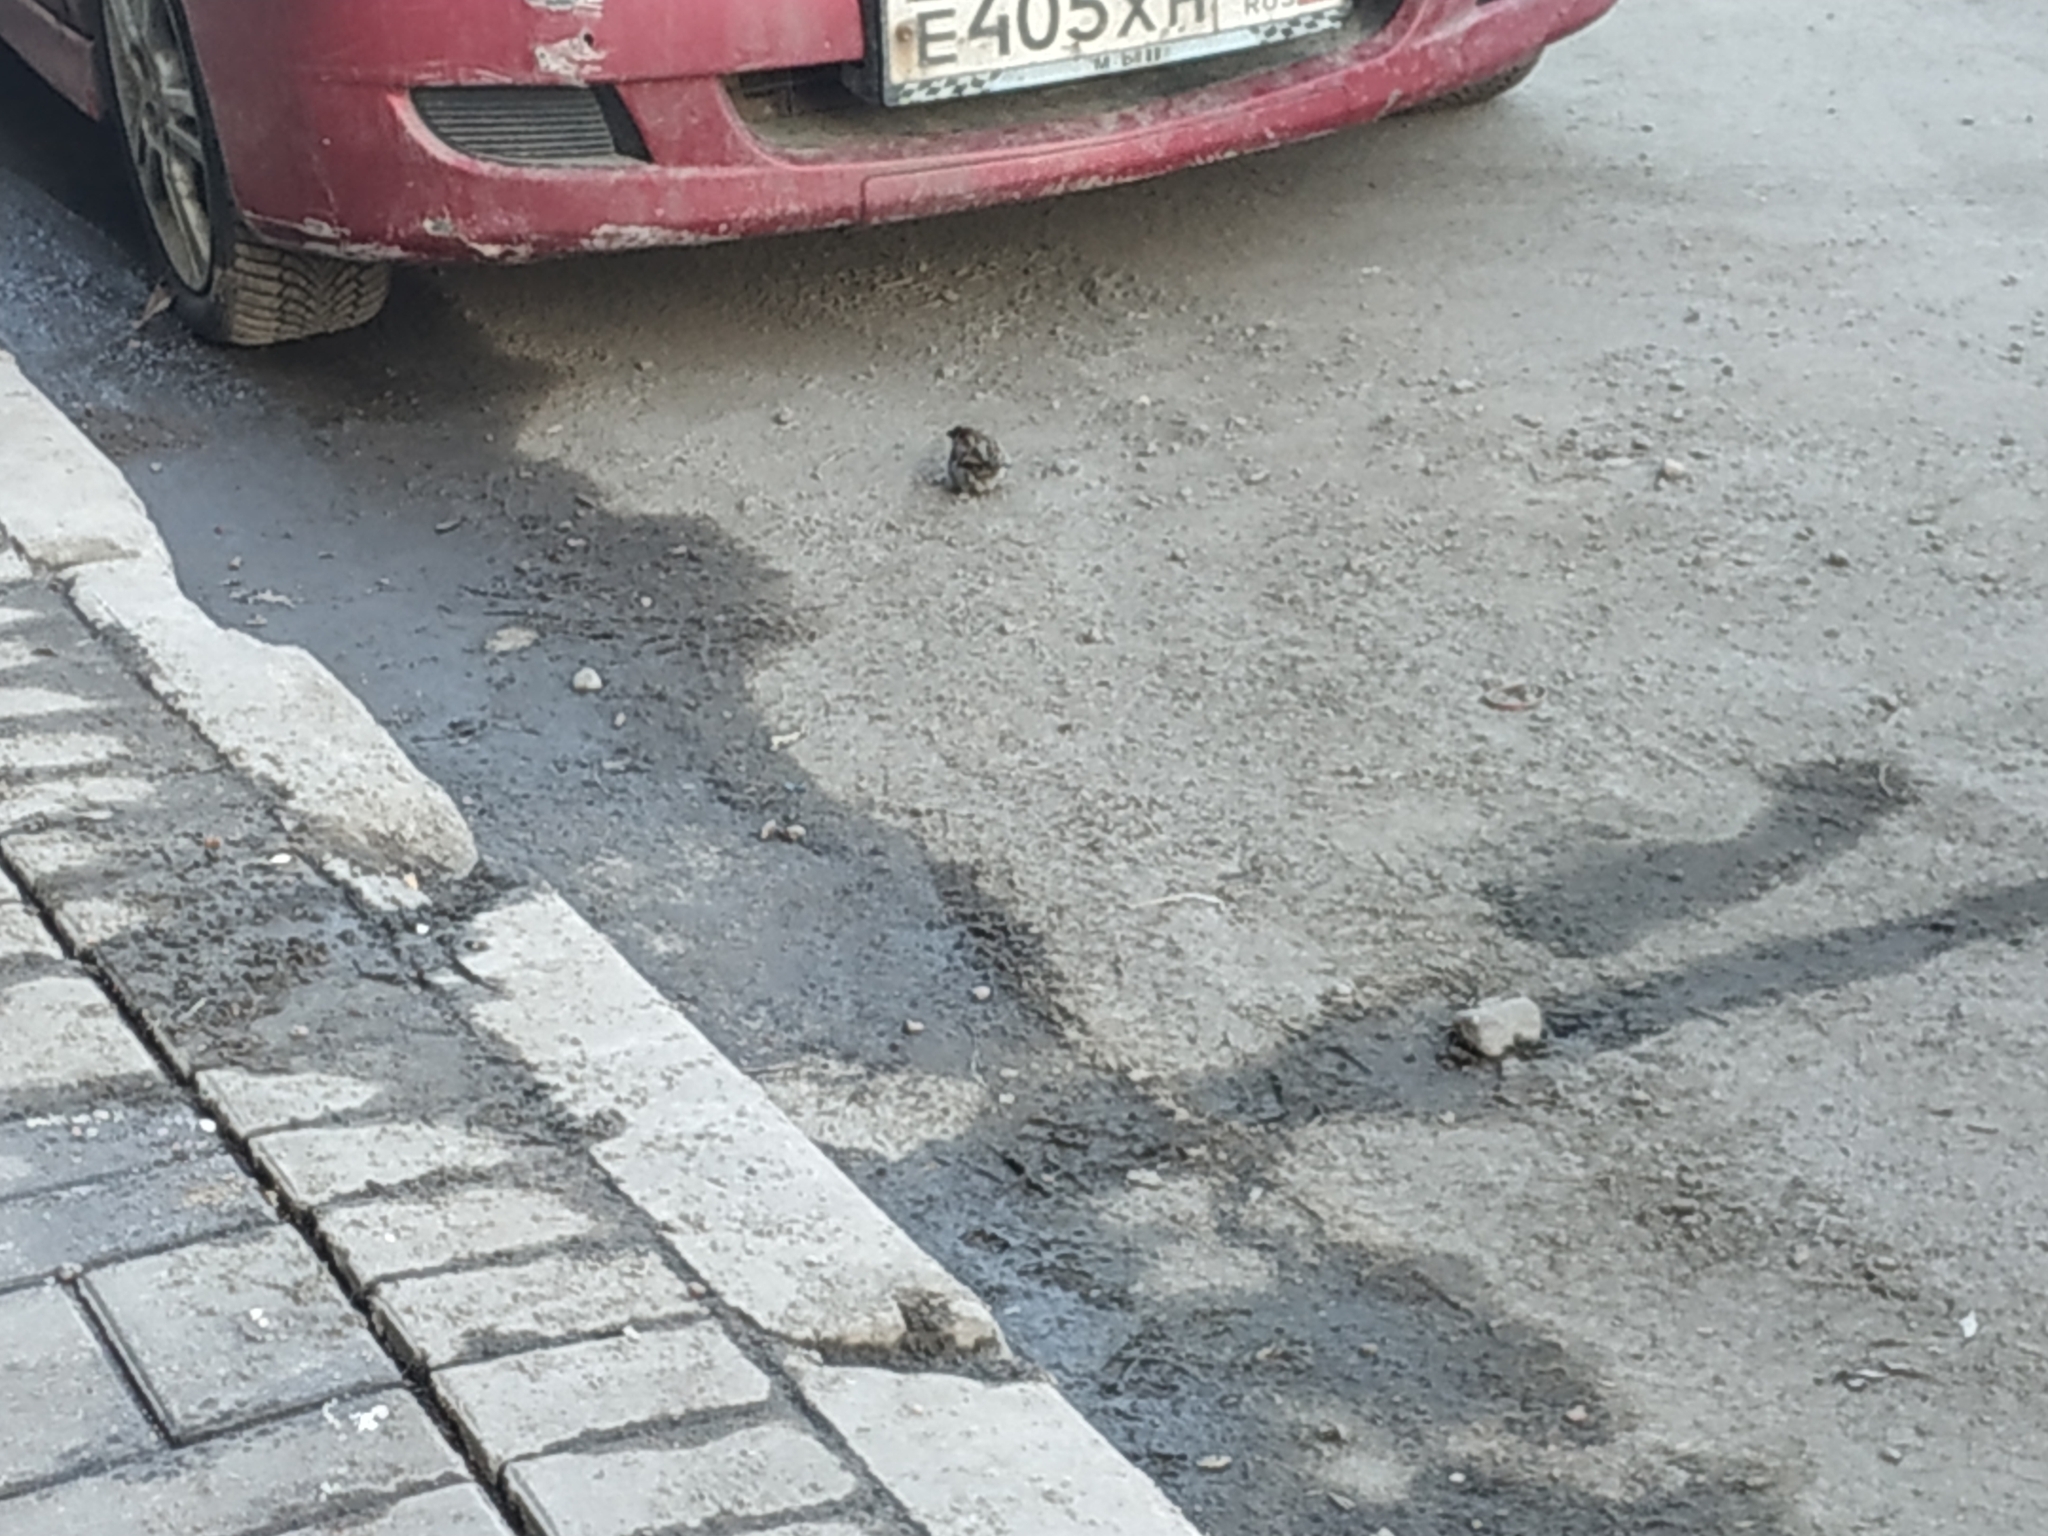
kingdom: Animalia
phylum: Chordata
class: Aves
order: Passeriformes
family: Passeridae
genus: Passer
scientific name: Passer domesticus
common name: House sparrow
